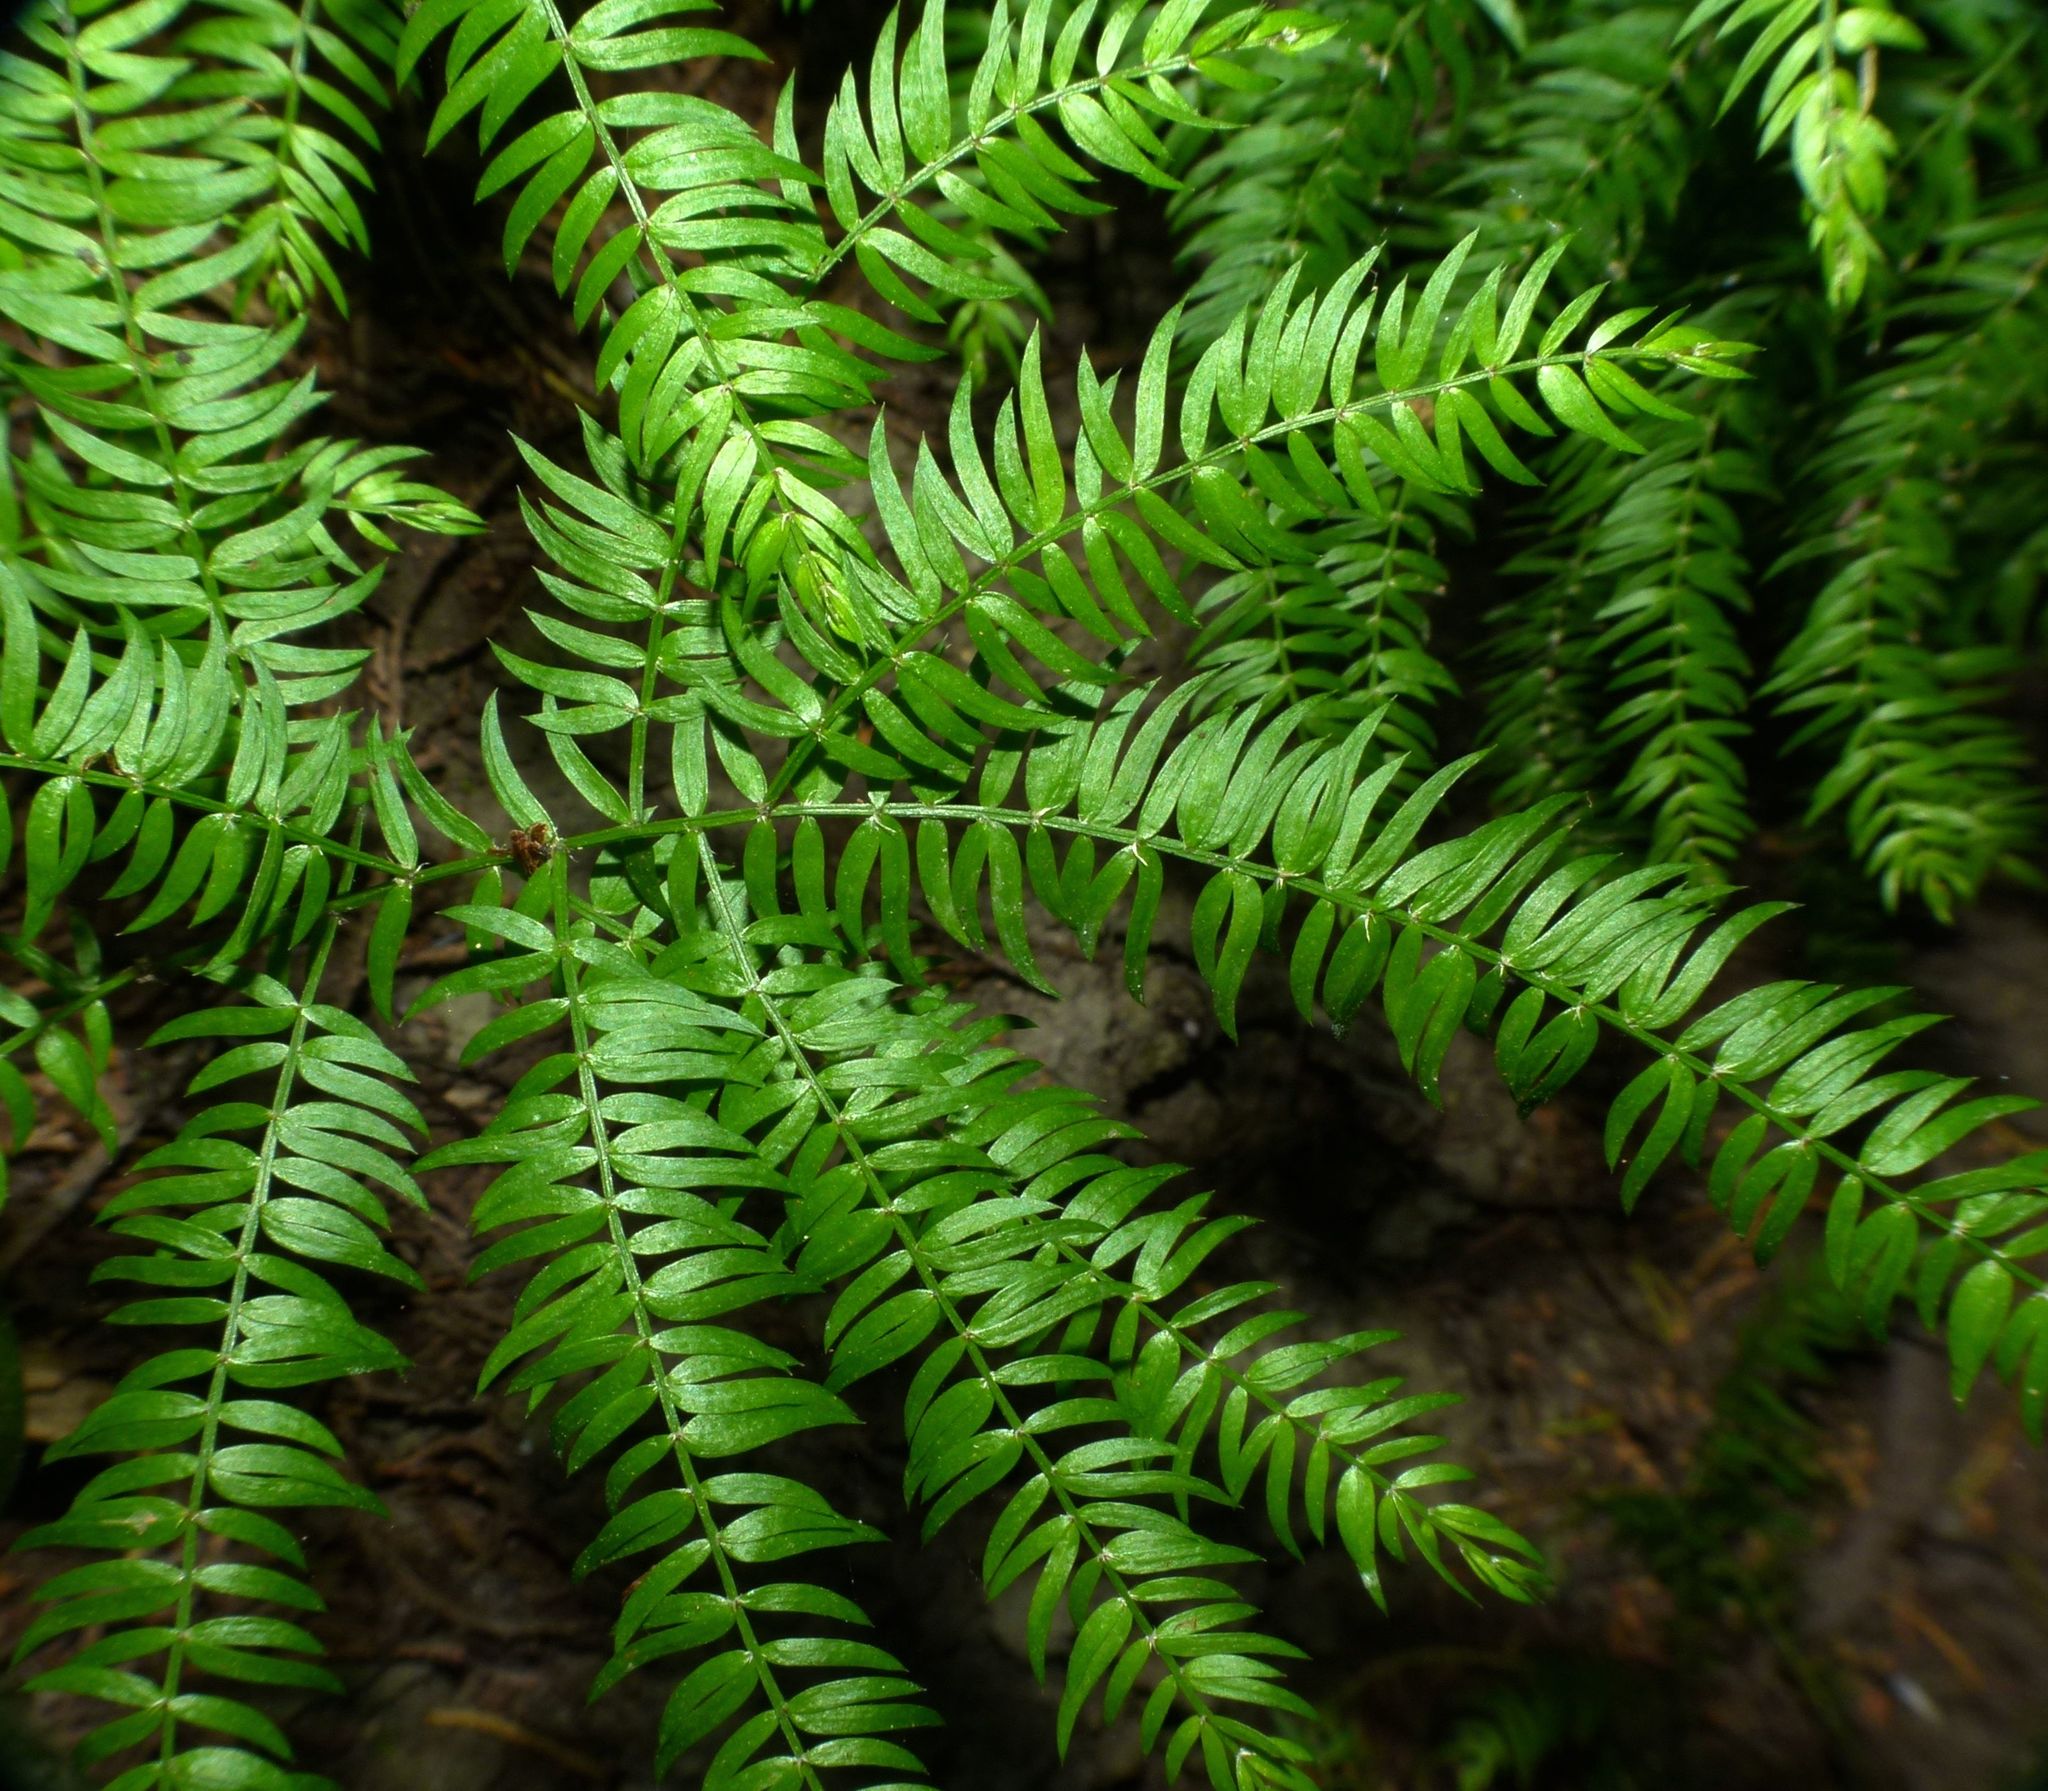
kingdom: Plantae
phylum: Tracheophyta
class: Liliopsida
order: Asparagales
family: Asparagaceae
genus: Asparagus
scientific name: Asparagus scandens
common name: Asparagus-fern
